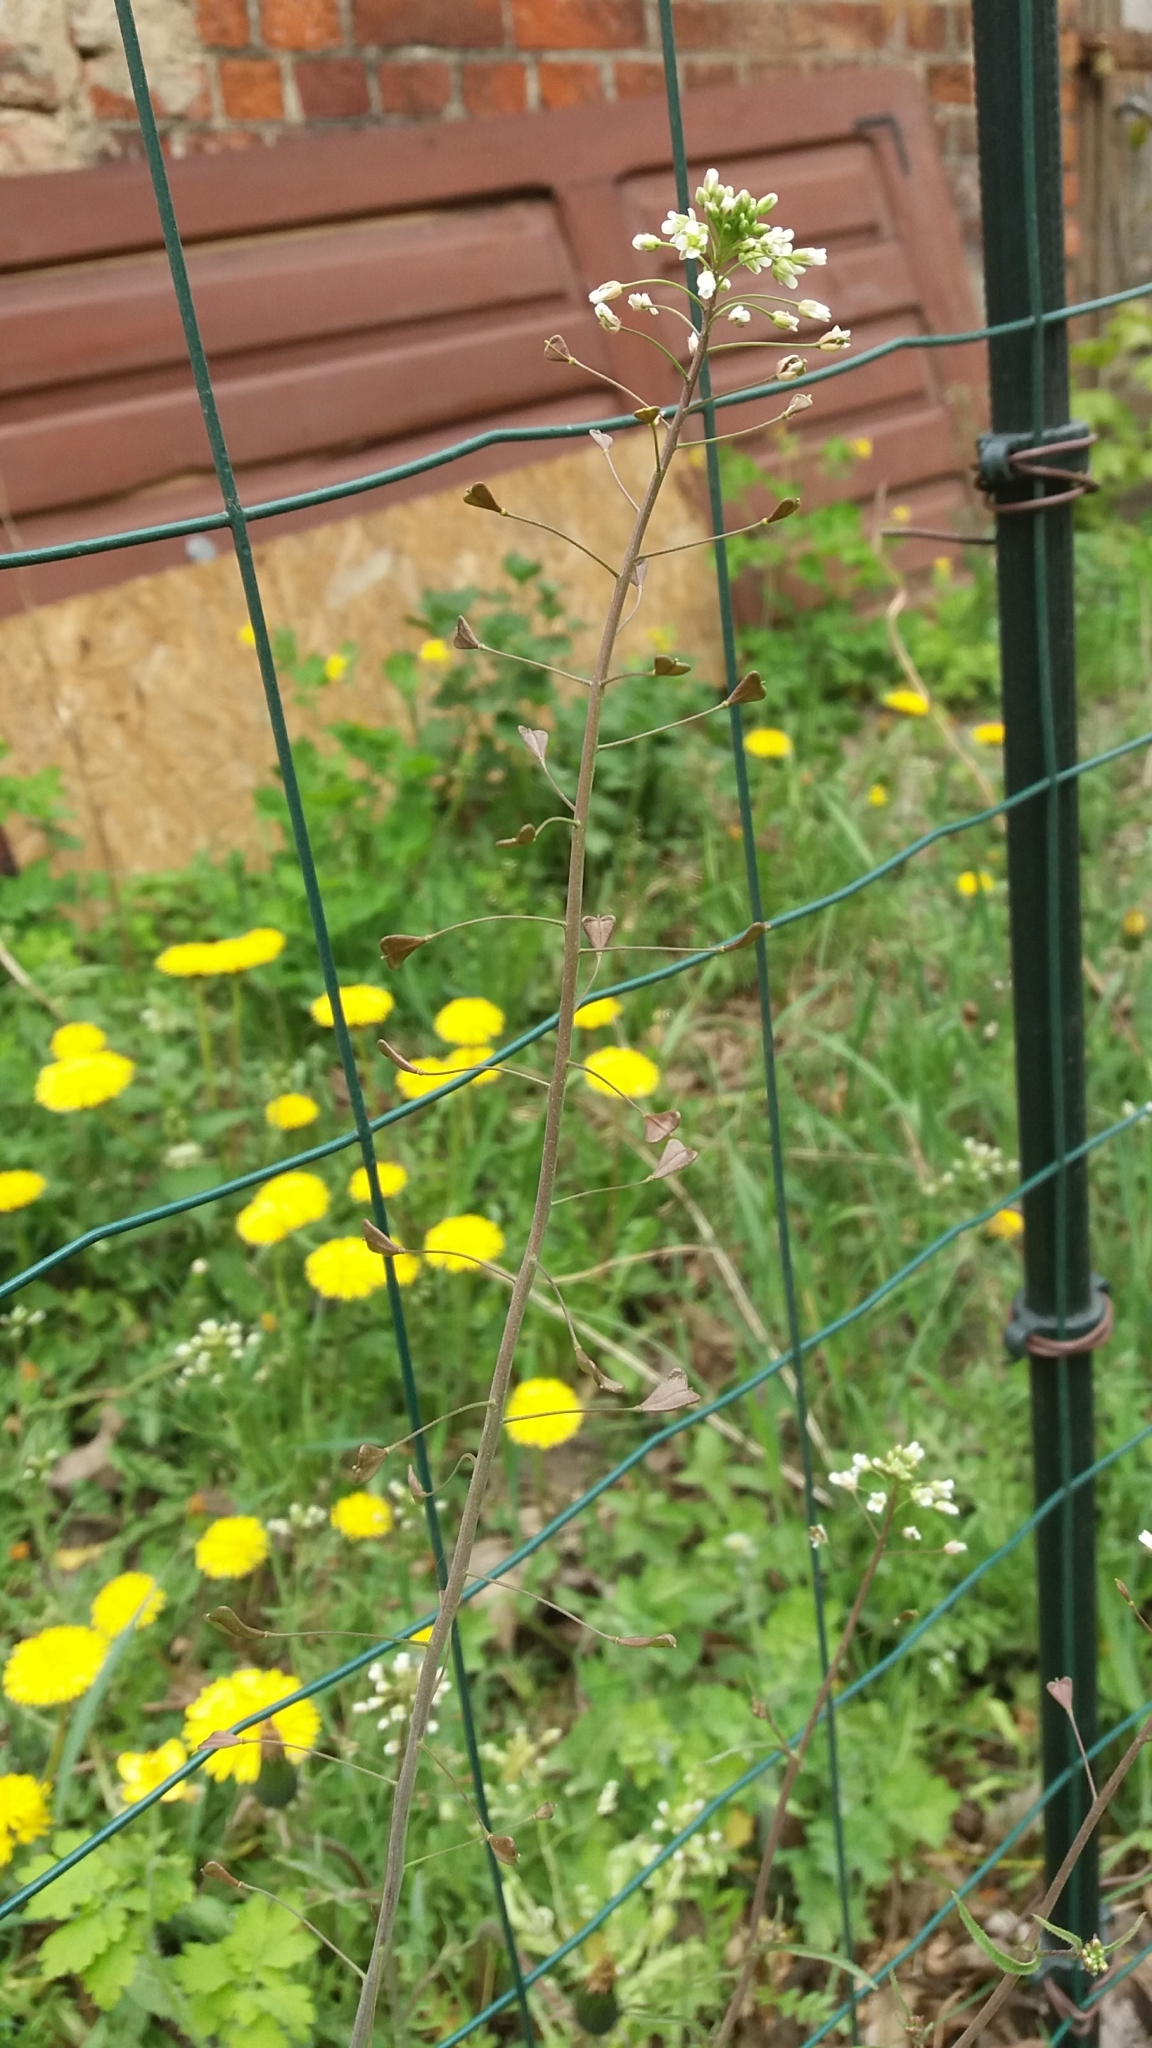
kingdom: Plantae
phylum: Tracheophyta
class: Magnoliopsida
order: Brassicales
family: Brassicaceae
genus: Capsella
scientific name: Capsella bursa-pastoris
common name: Shepherd's purse
